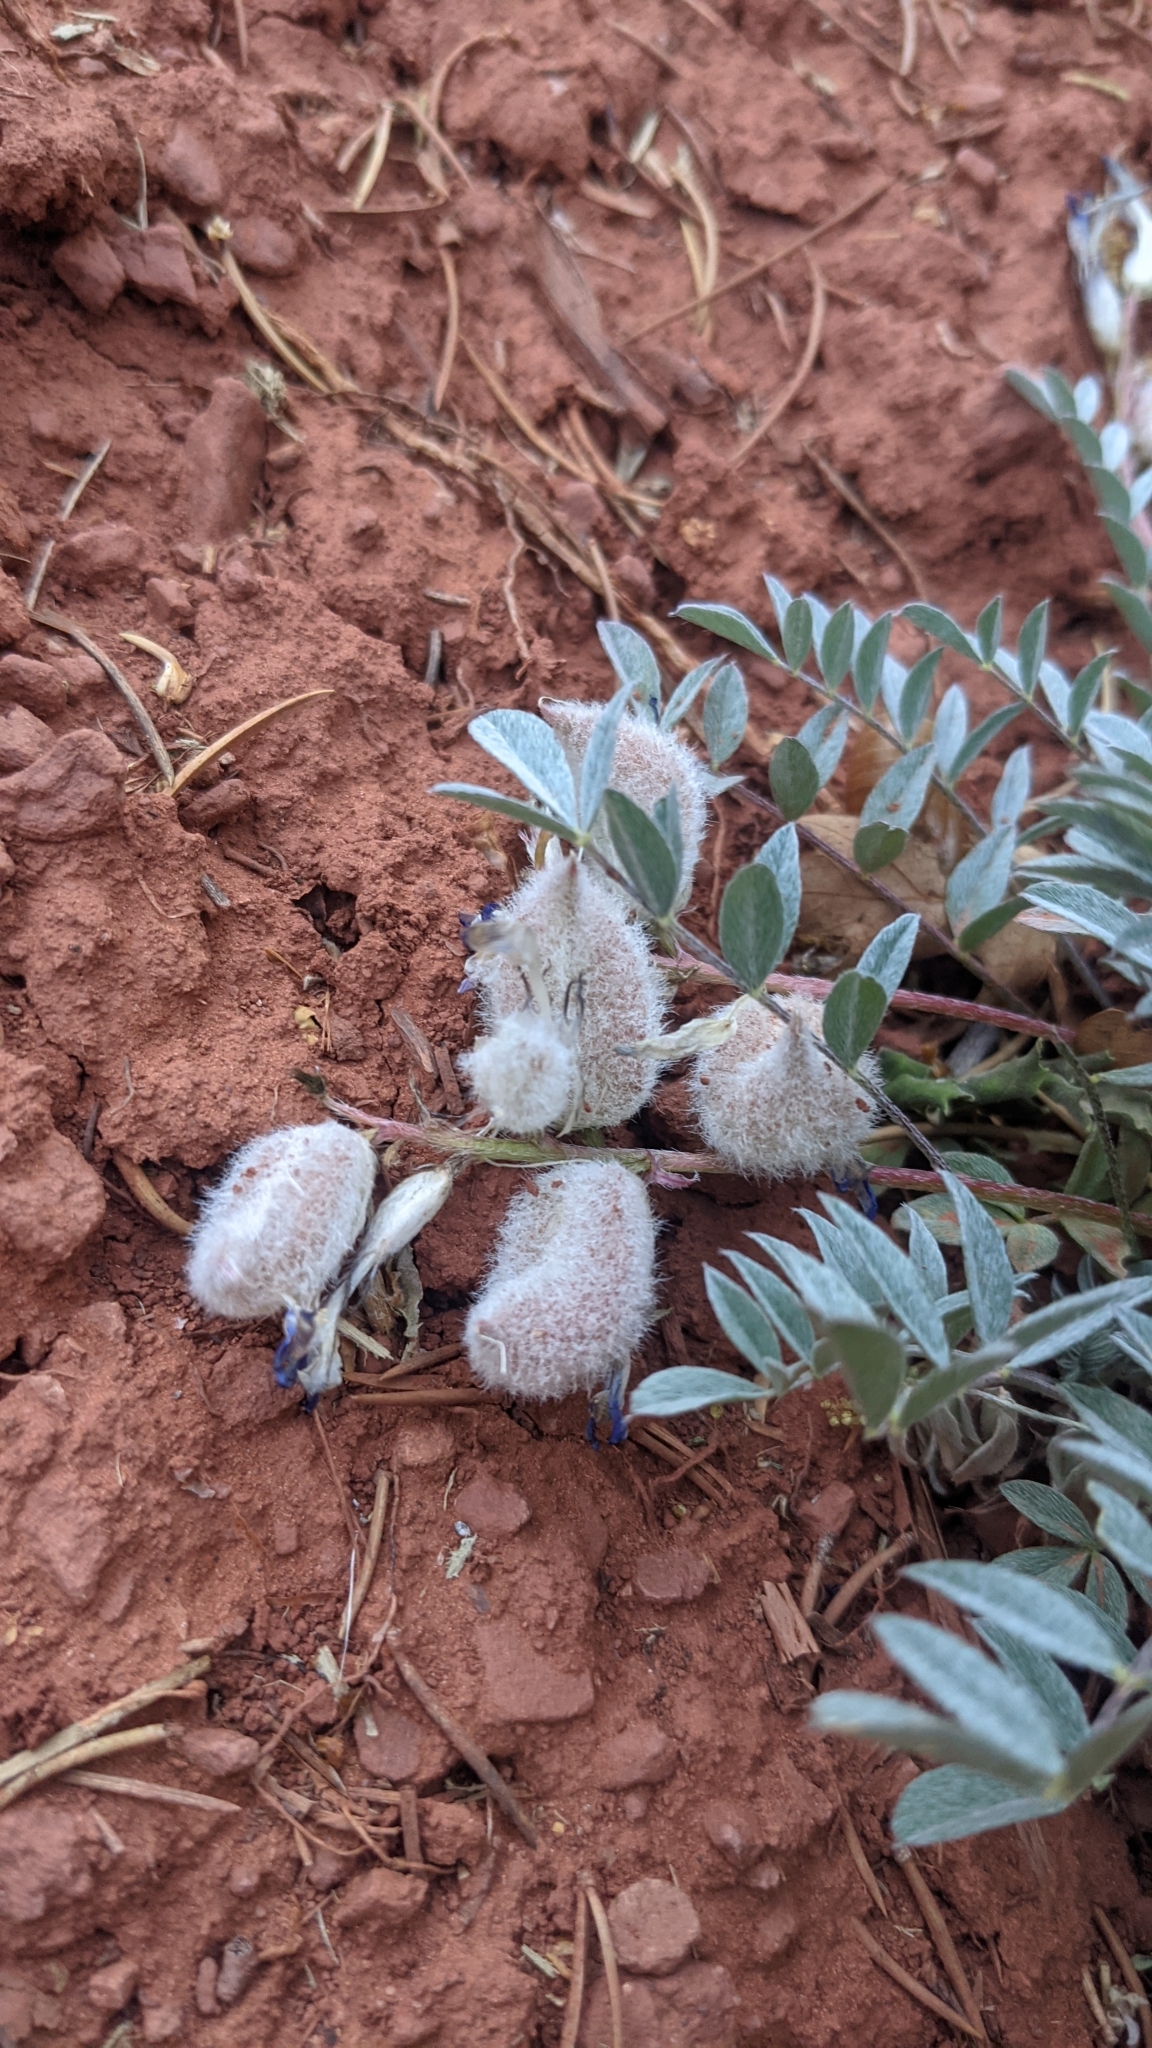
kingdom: Plantae
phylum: Tracheophyta
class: Magnoliopsida
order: Fabales
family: Fabaceae
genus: Astragalus
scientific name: Astragalus concordius
